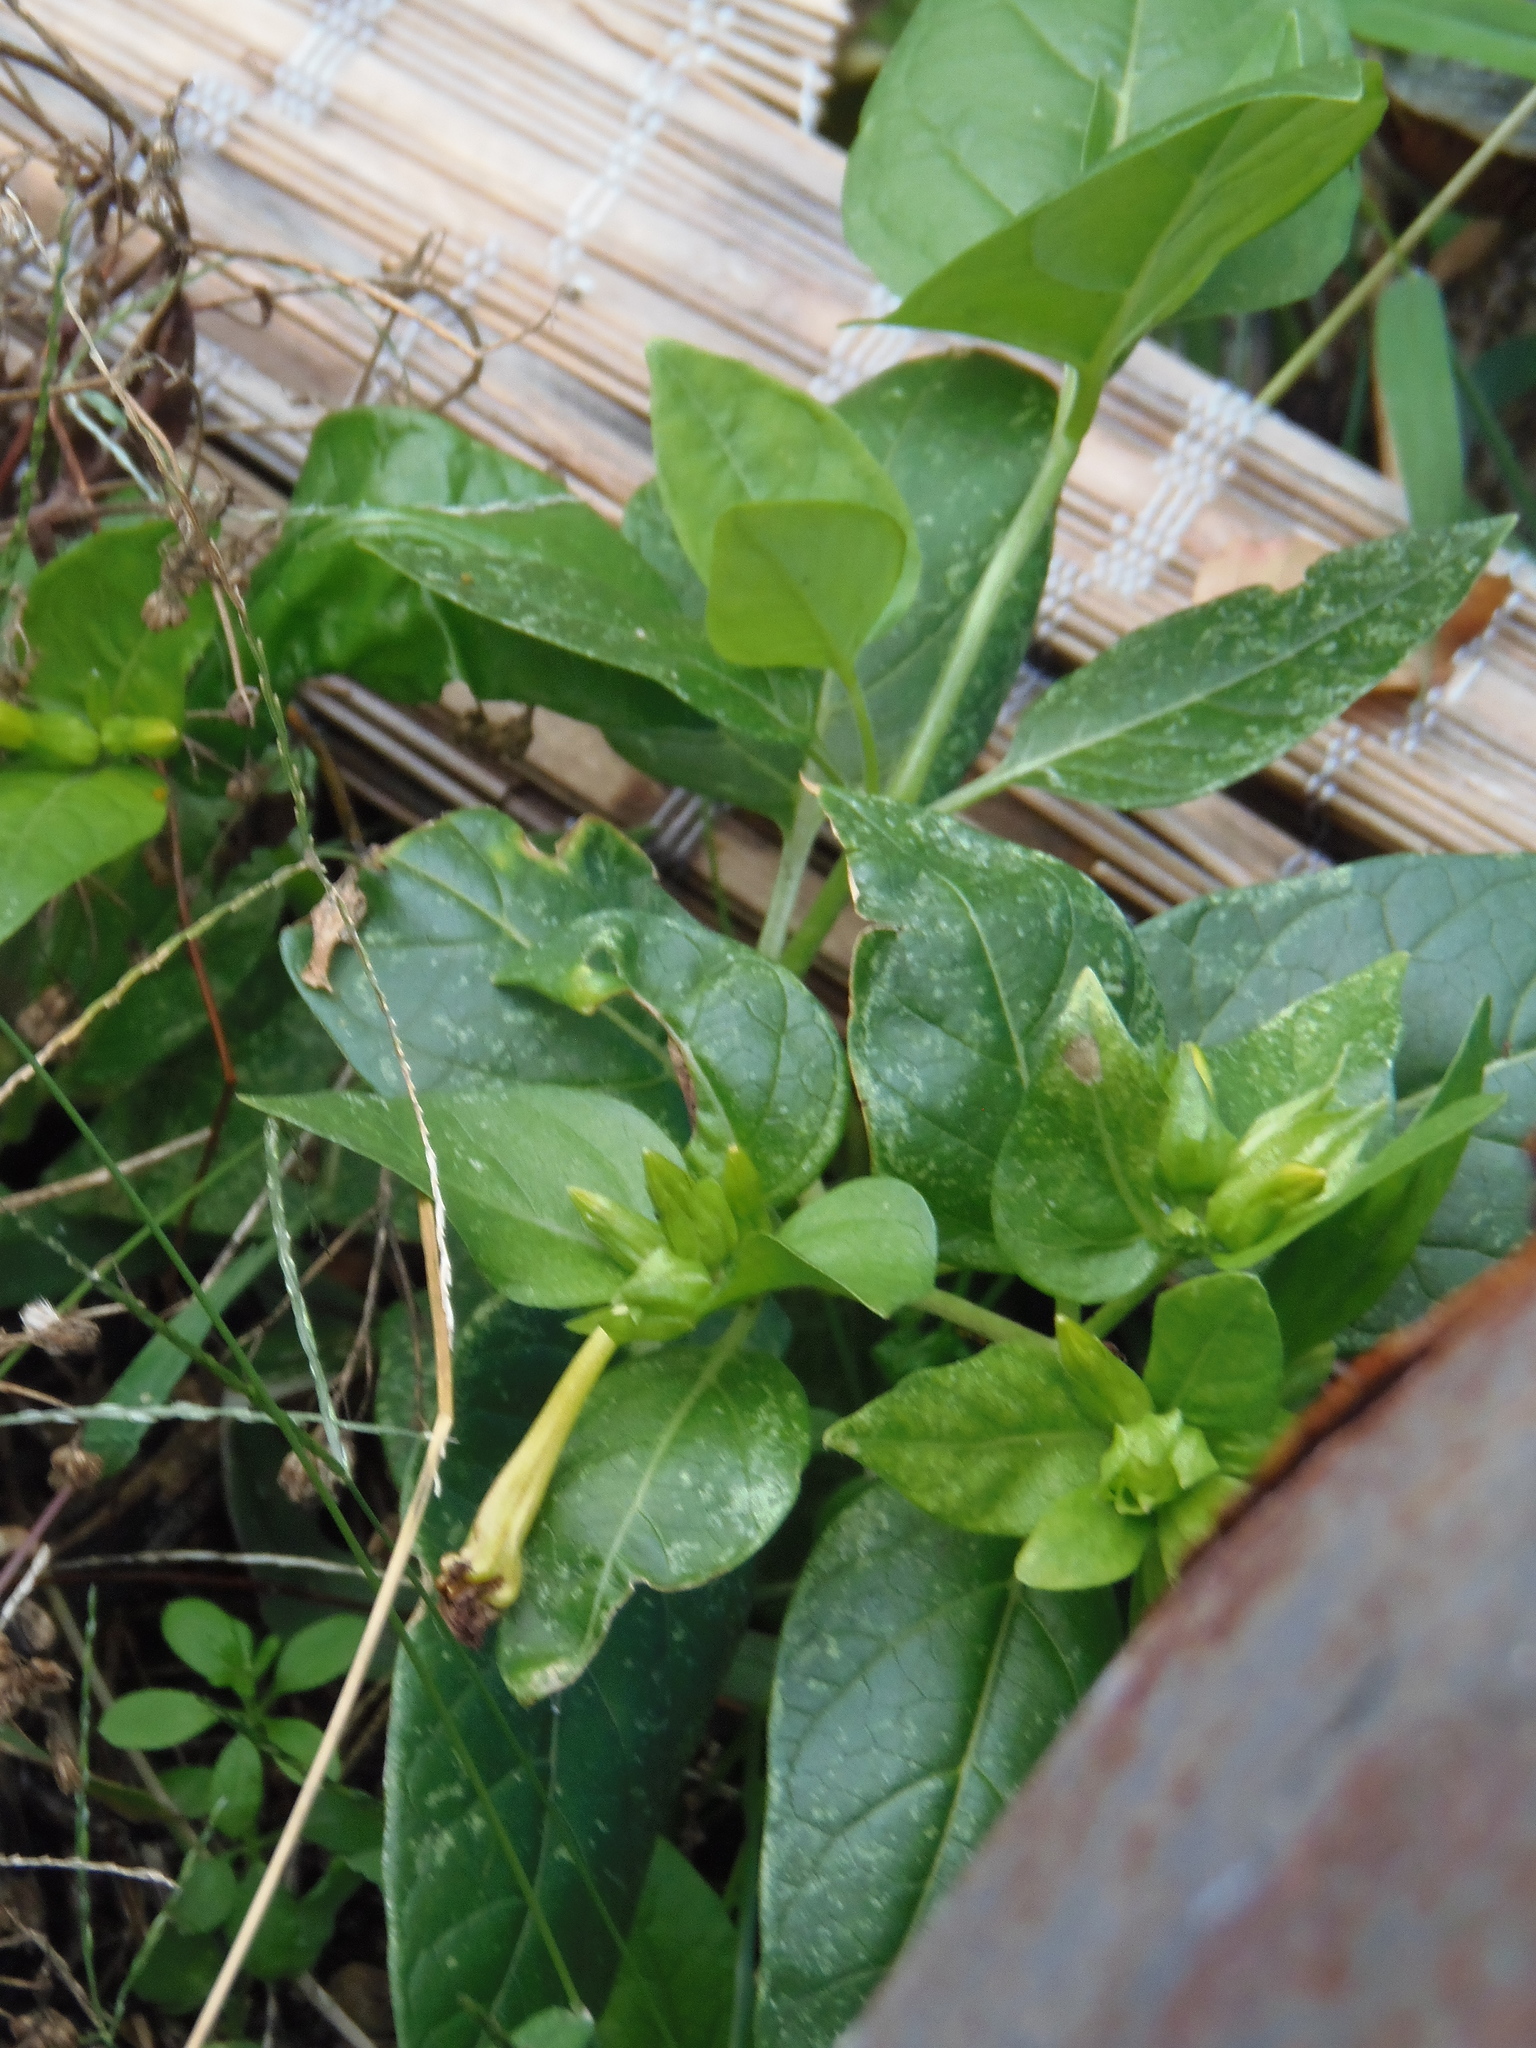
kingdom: Plantae
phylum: Tracheophyta
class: Magnoliopsida
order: Caryophyllales
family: Nyctaginaceae
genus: Mirabilis
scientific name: Mirabilis jalapa
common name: Marvel-of-peru
